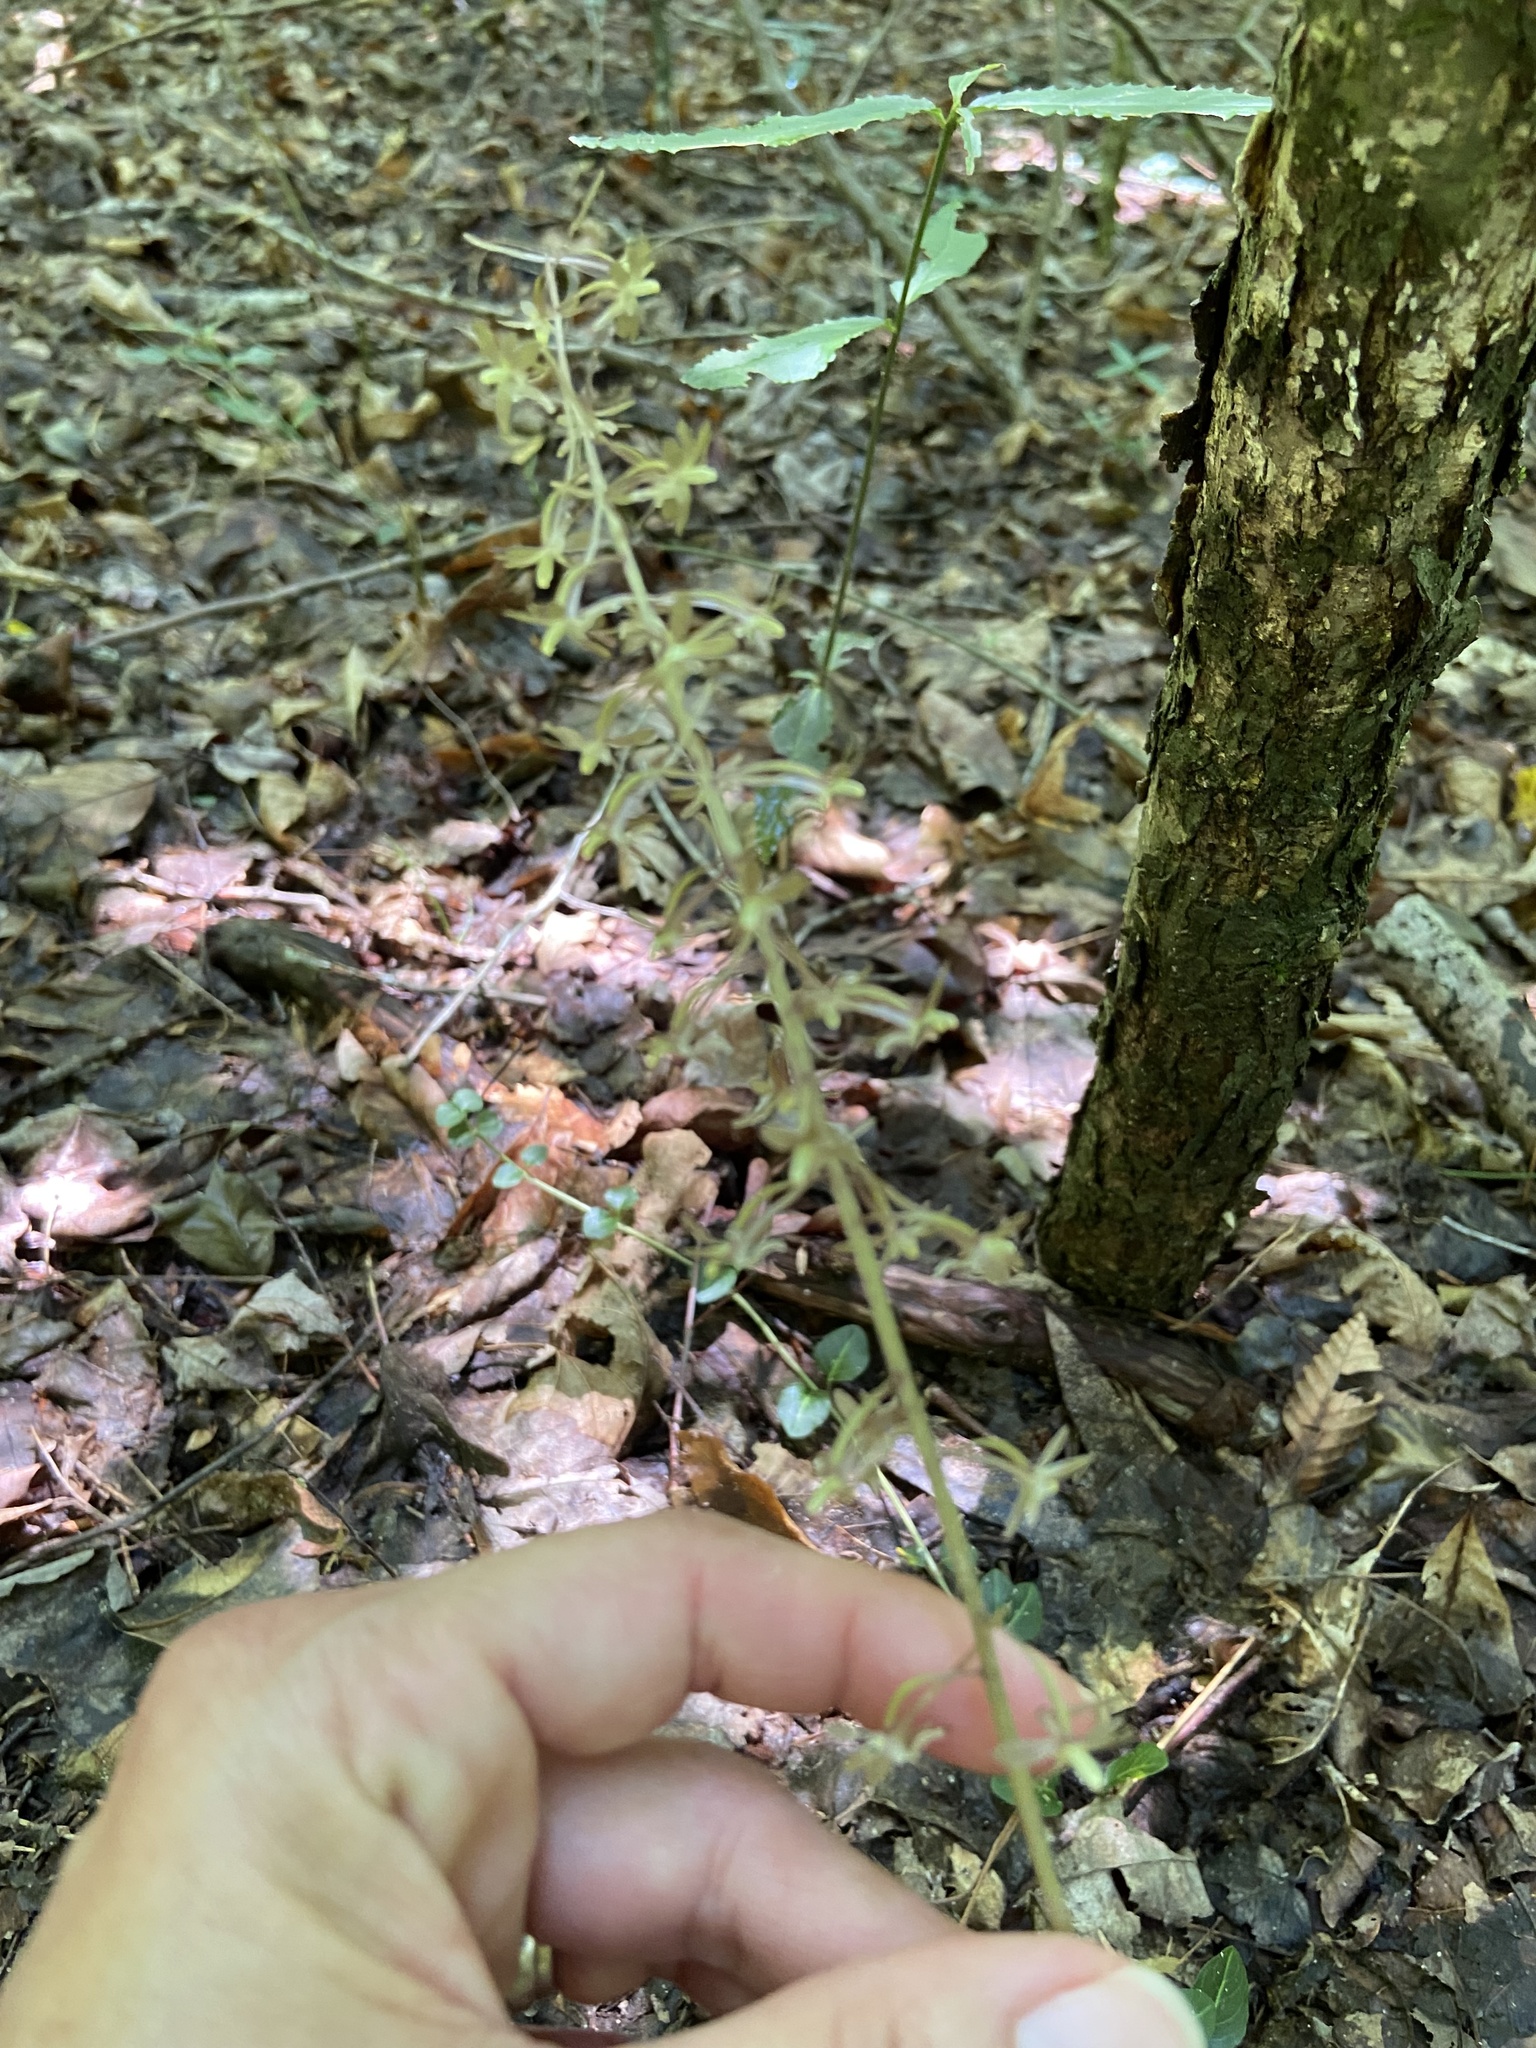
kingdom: Plantae
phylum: Tracheophyta
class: Liliopsida
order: Asparagales
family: Orchidaceae
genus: Tipularia
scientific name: Tipularia discolor
